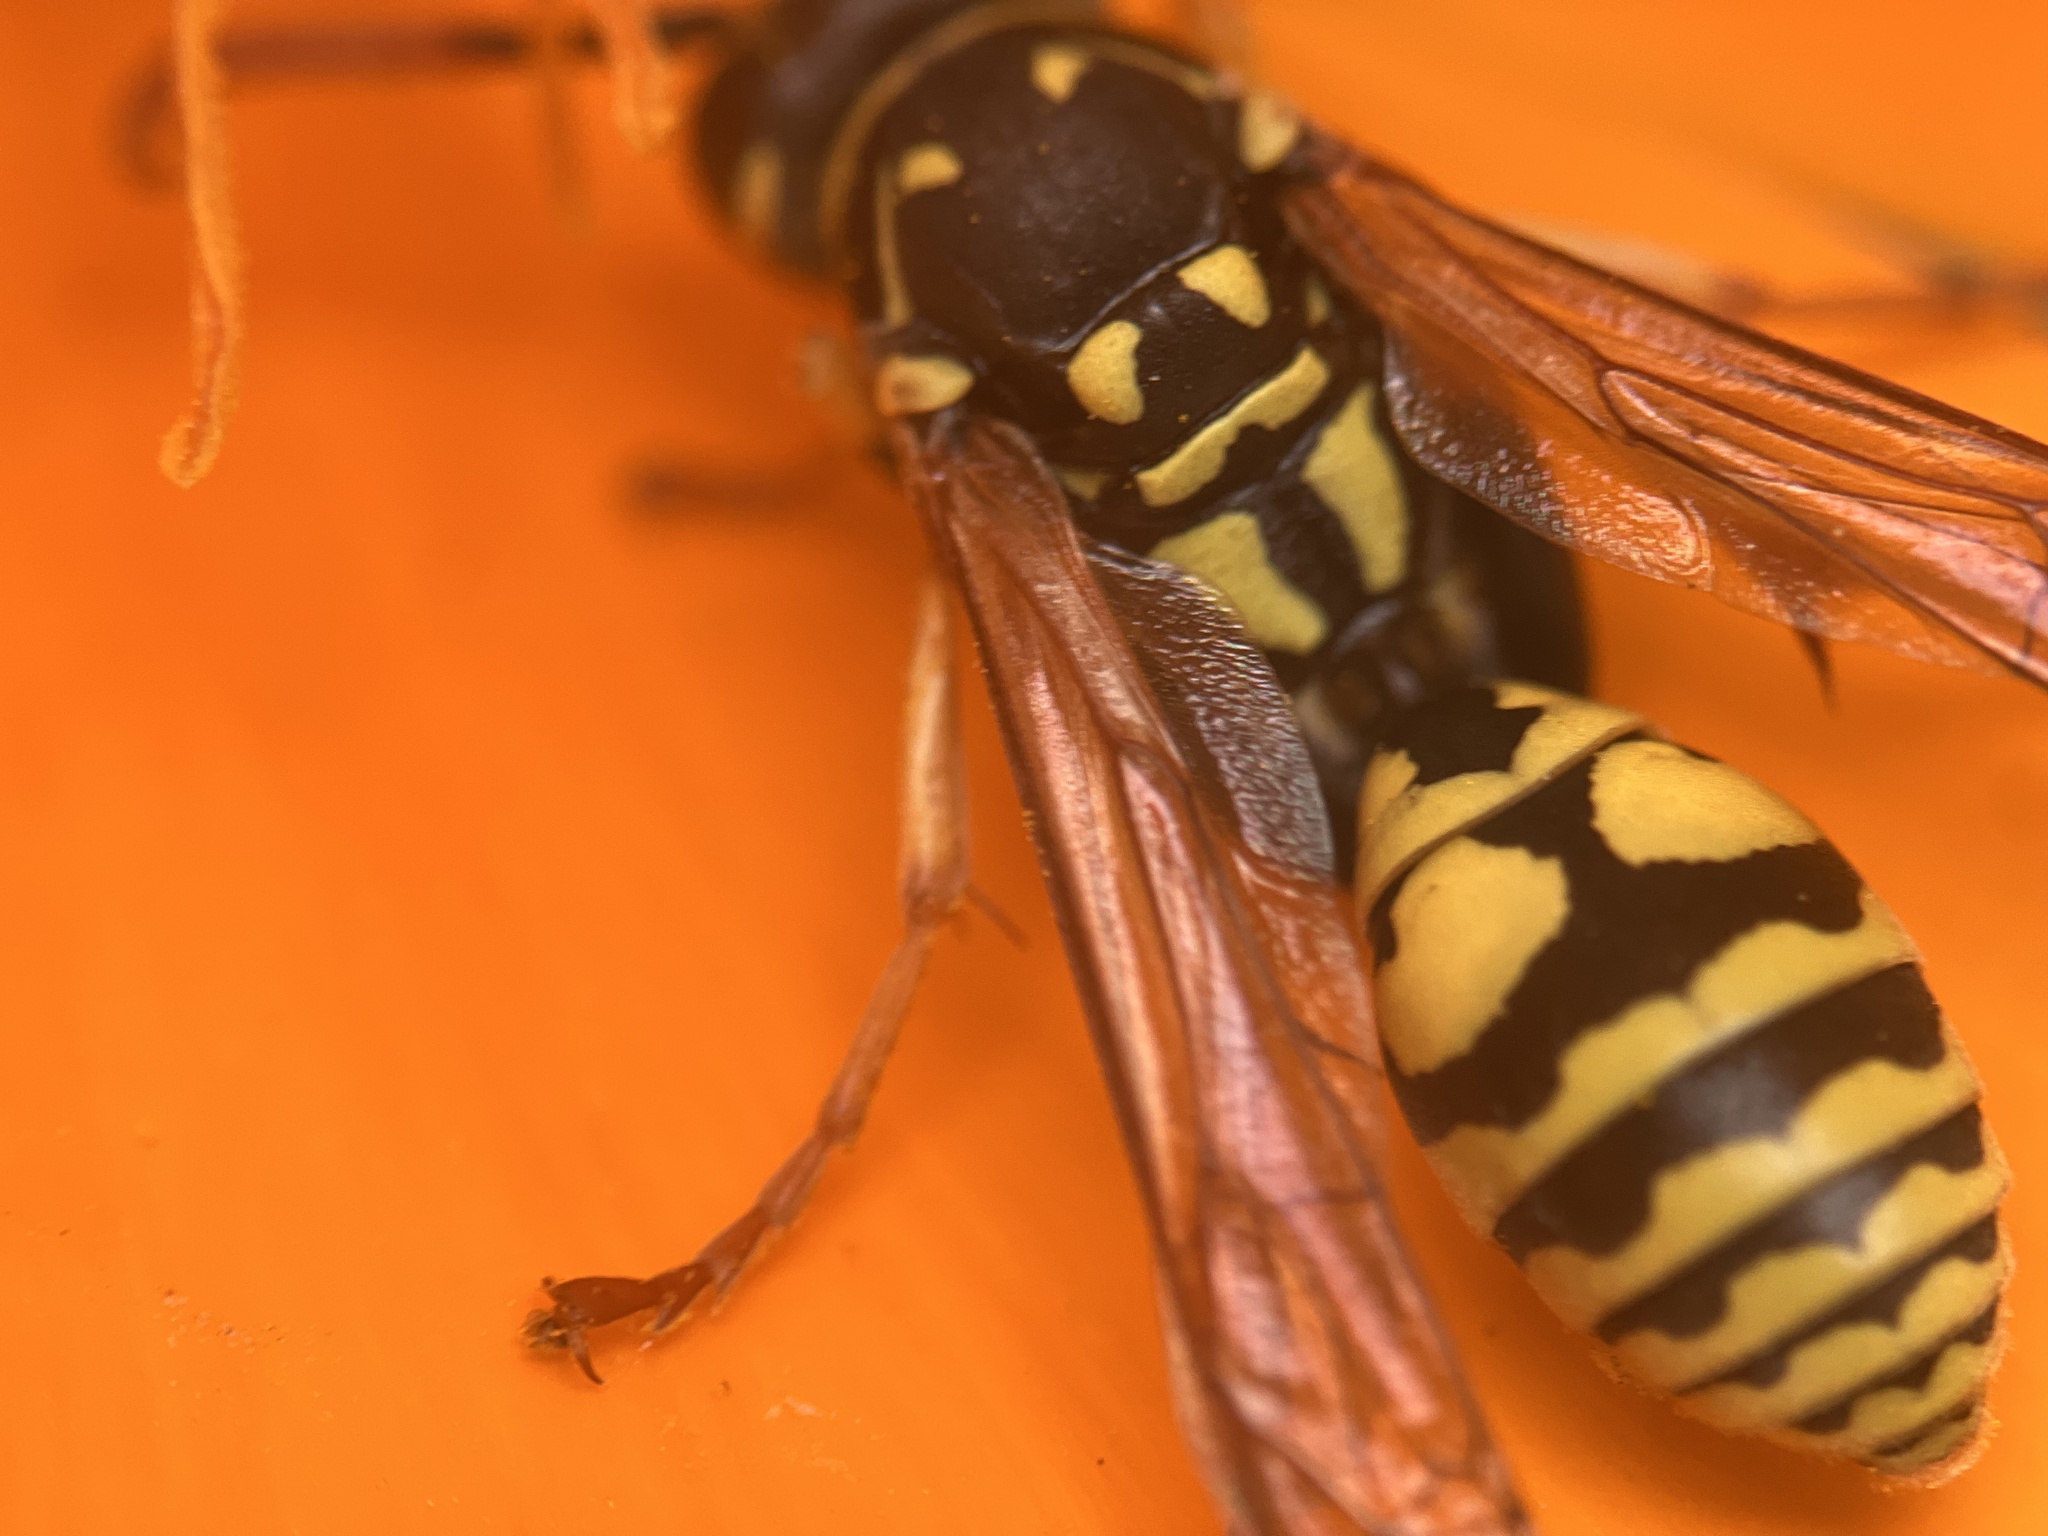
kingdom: Animalia
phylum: Arthropoda
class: Insecta
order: Hymenoptera
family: Eumenidae
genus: Polistes
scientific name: Polistes dominula
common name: Paper wasp
